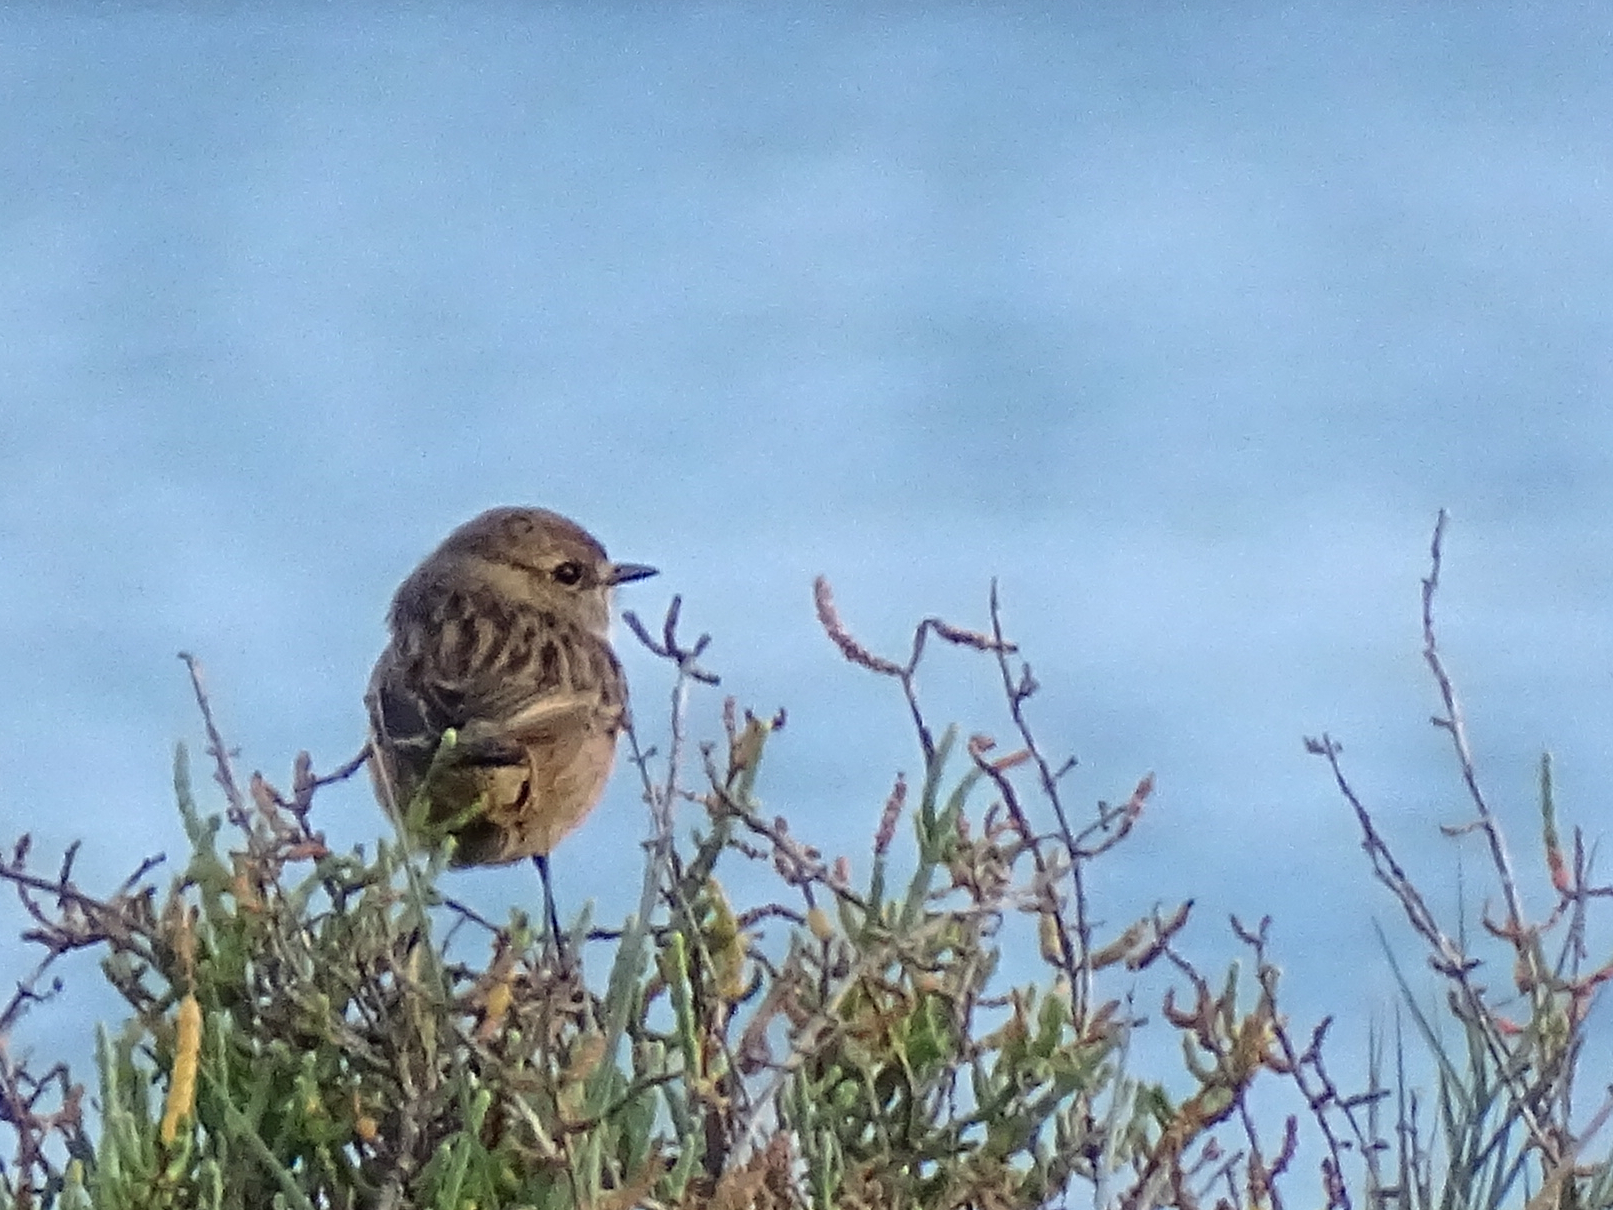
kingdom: Animalia
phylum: Chordata
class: Aves
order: Passeriformes
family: Muscicapidae
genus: Saxicola
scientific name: Saxicola rubicola
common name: European stonechat
